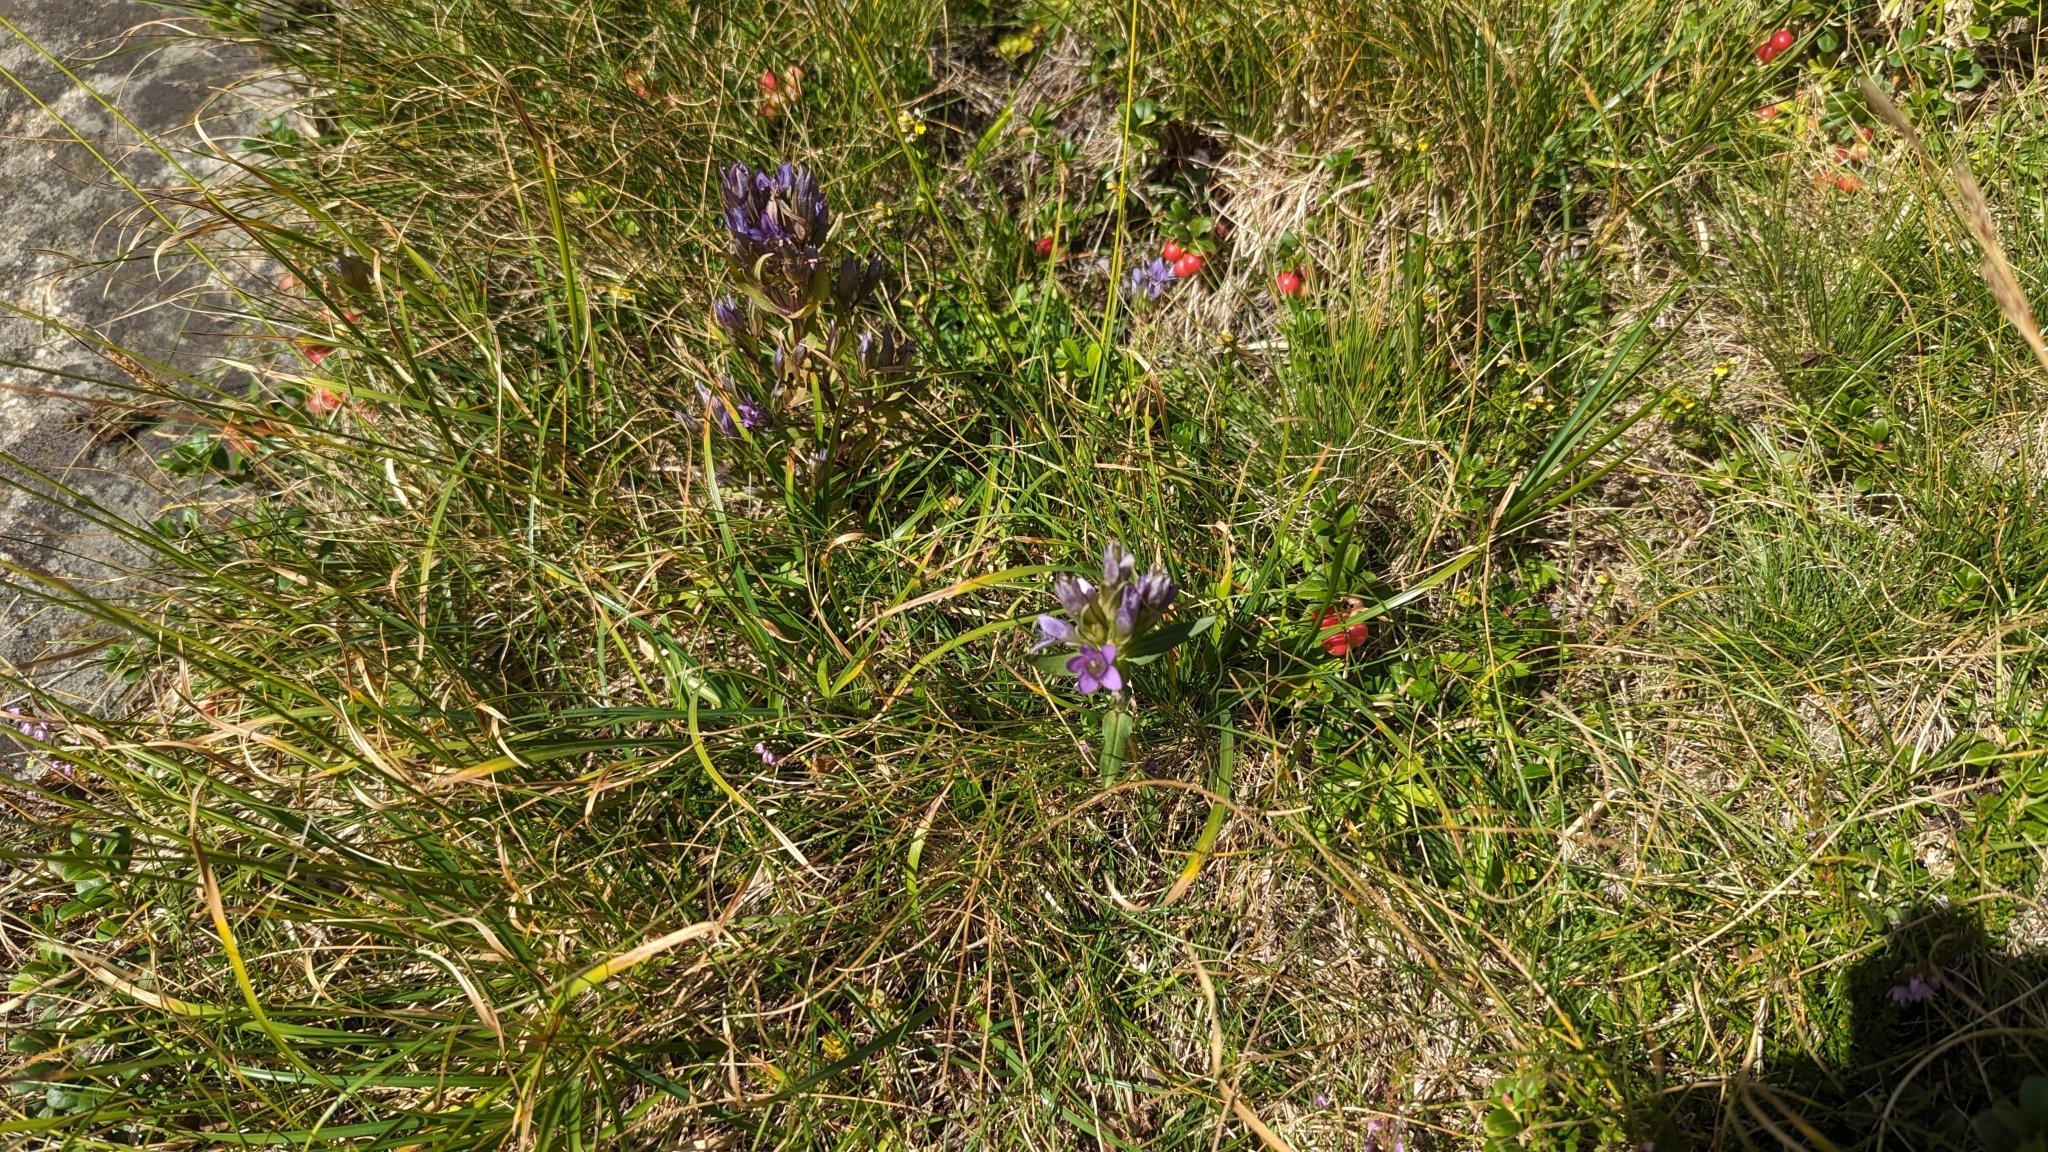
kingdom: Plantae
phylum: Tracheophyta
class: Magnoliopsida
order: Gentianales
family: Gentianaceae
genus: Gentianella
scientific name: Gentianella ramosa
